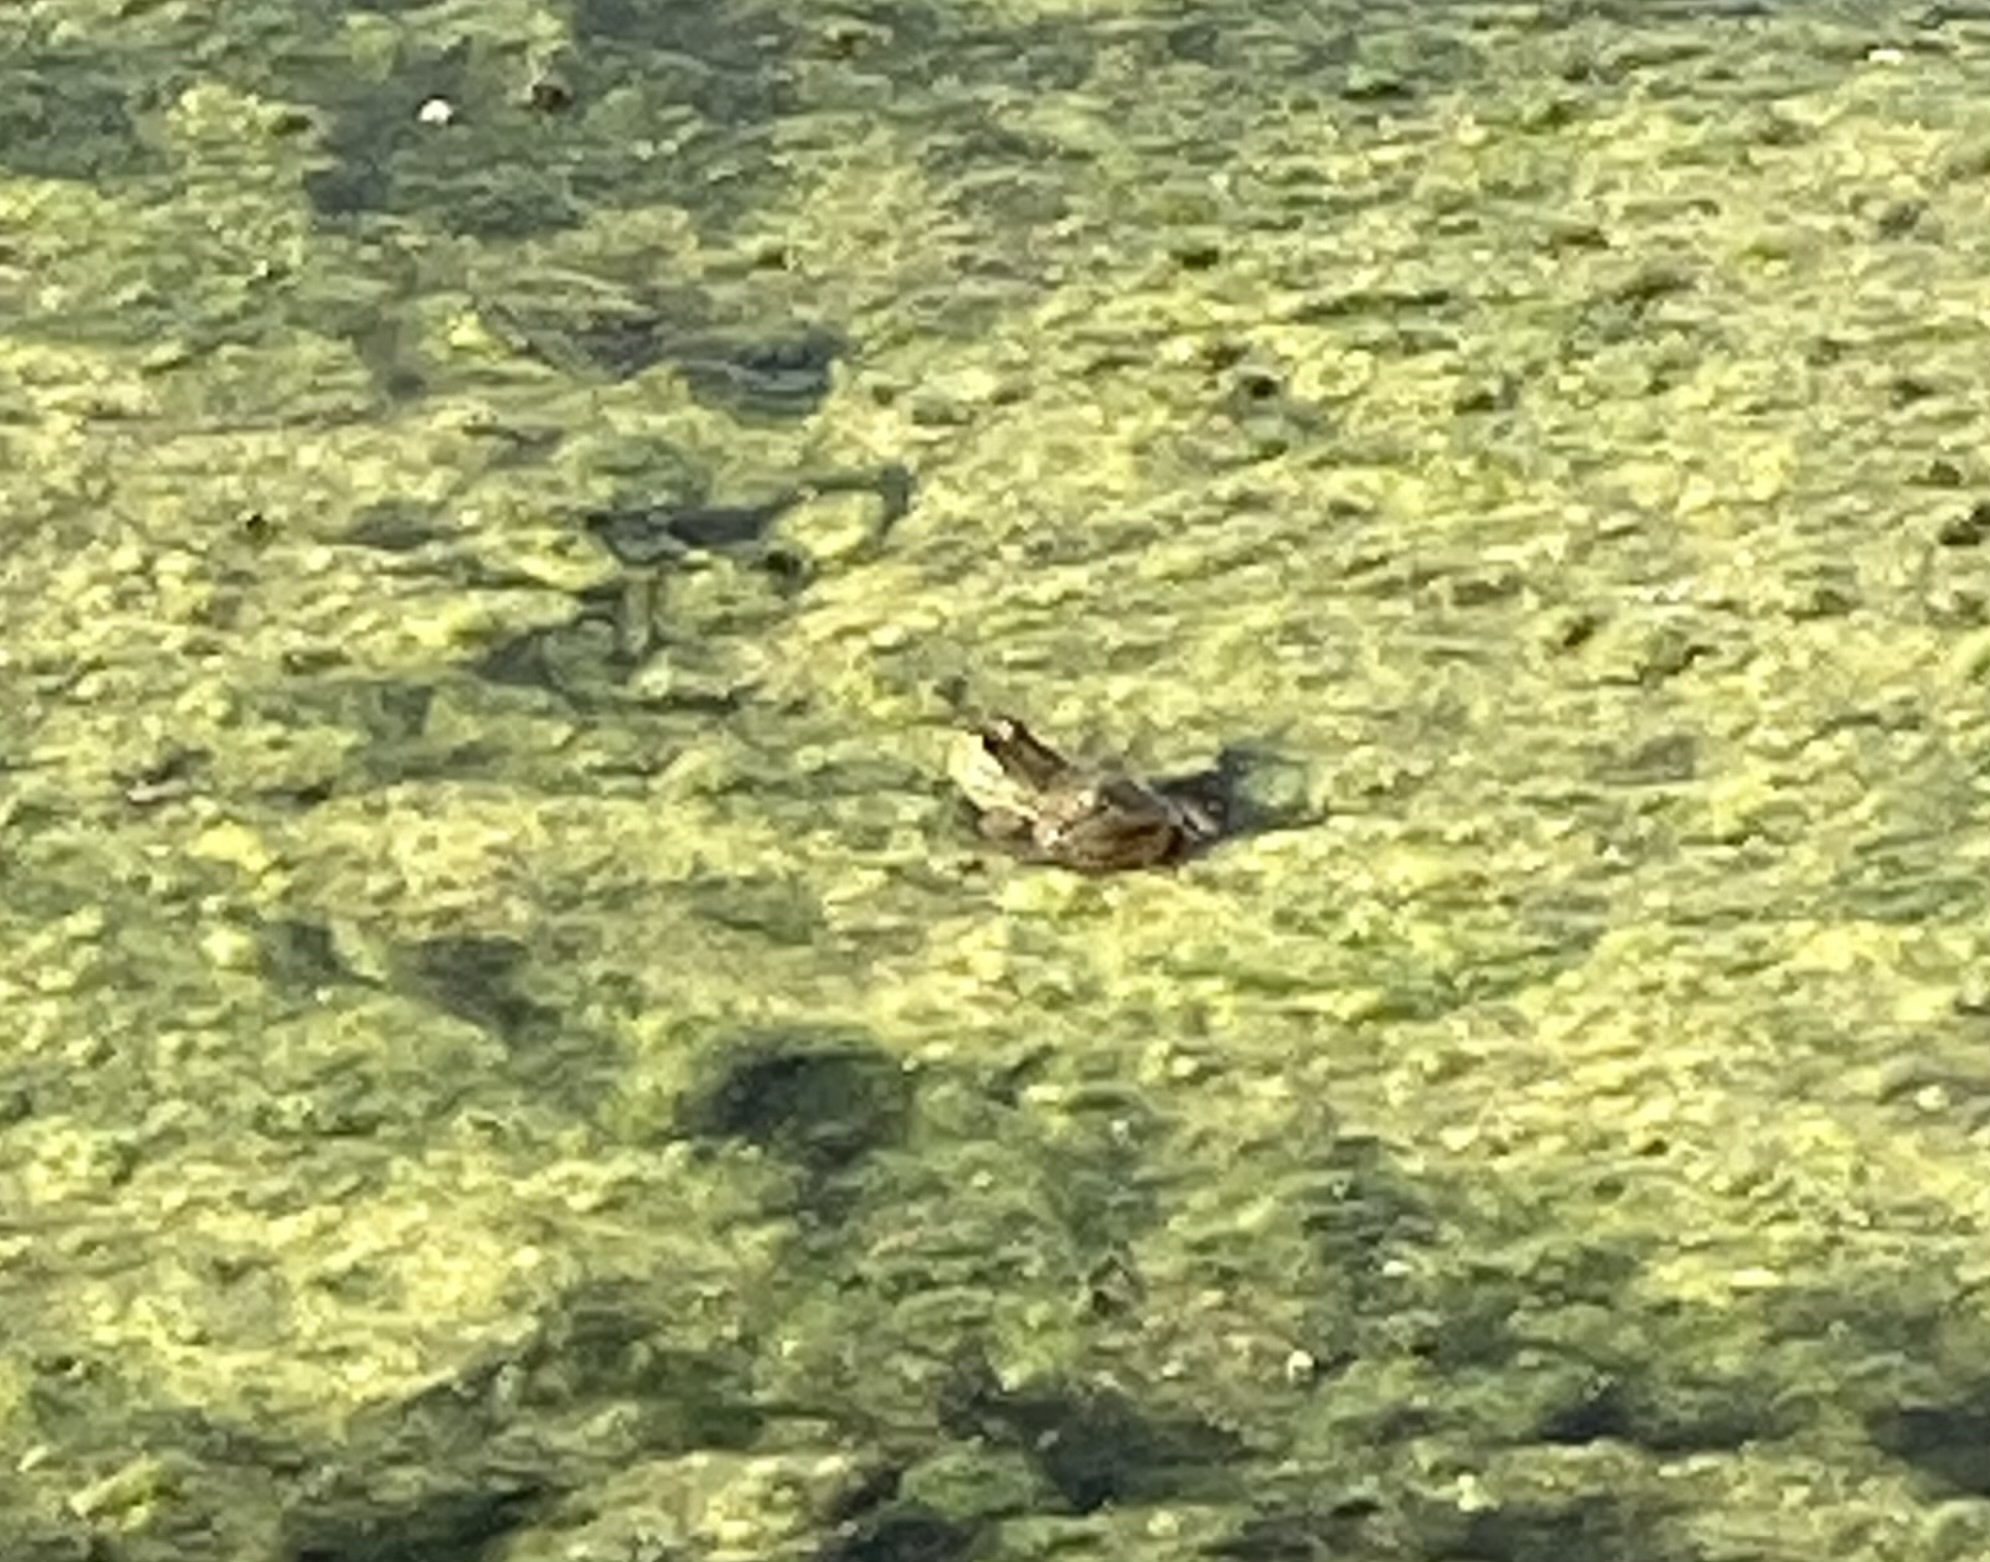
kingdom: Animalia
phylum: Chordata
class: Amphibia
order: Anura
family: Ranidae
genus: Lithobates
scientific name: Lithobates catesbeianus
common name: American bullfrog
